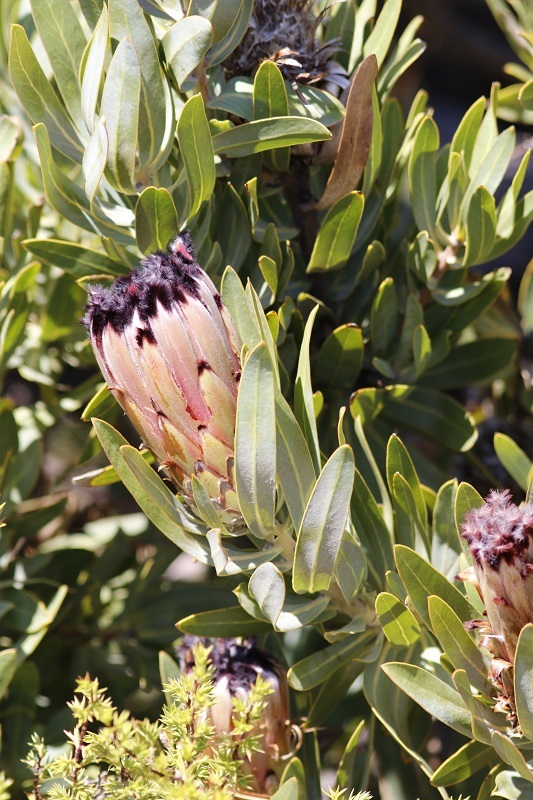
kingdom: Plantae
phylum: Tracheophyta
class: Magnoliopsida
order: Proteales
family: Proteaceae
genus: Protea
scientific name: Protea laurifolia
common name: Grey-leaf sugarbsh
